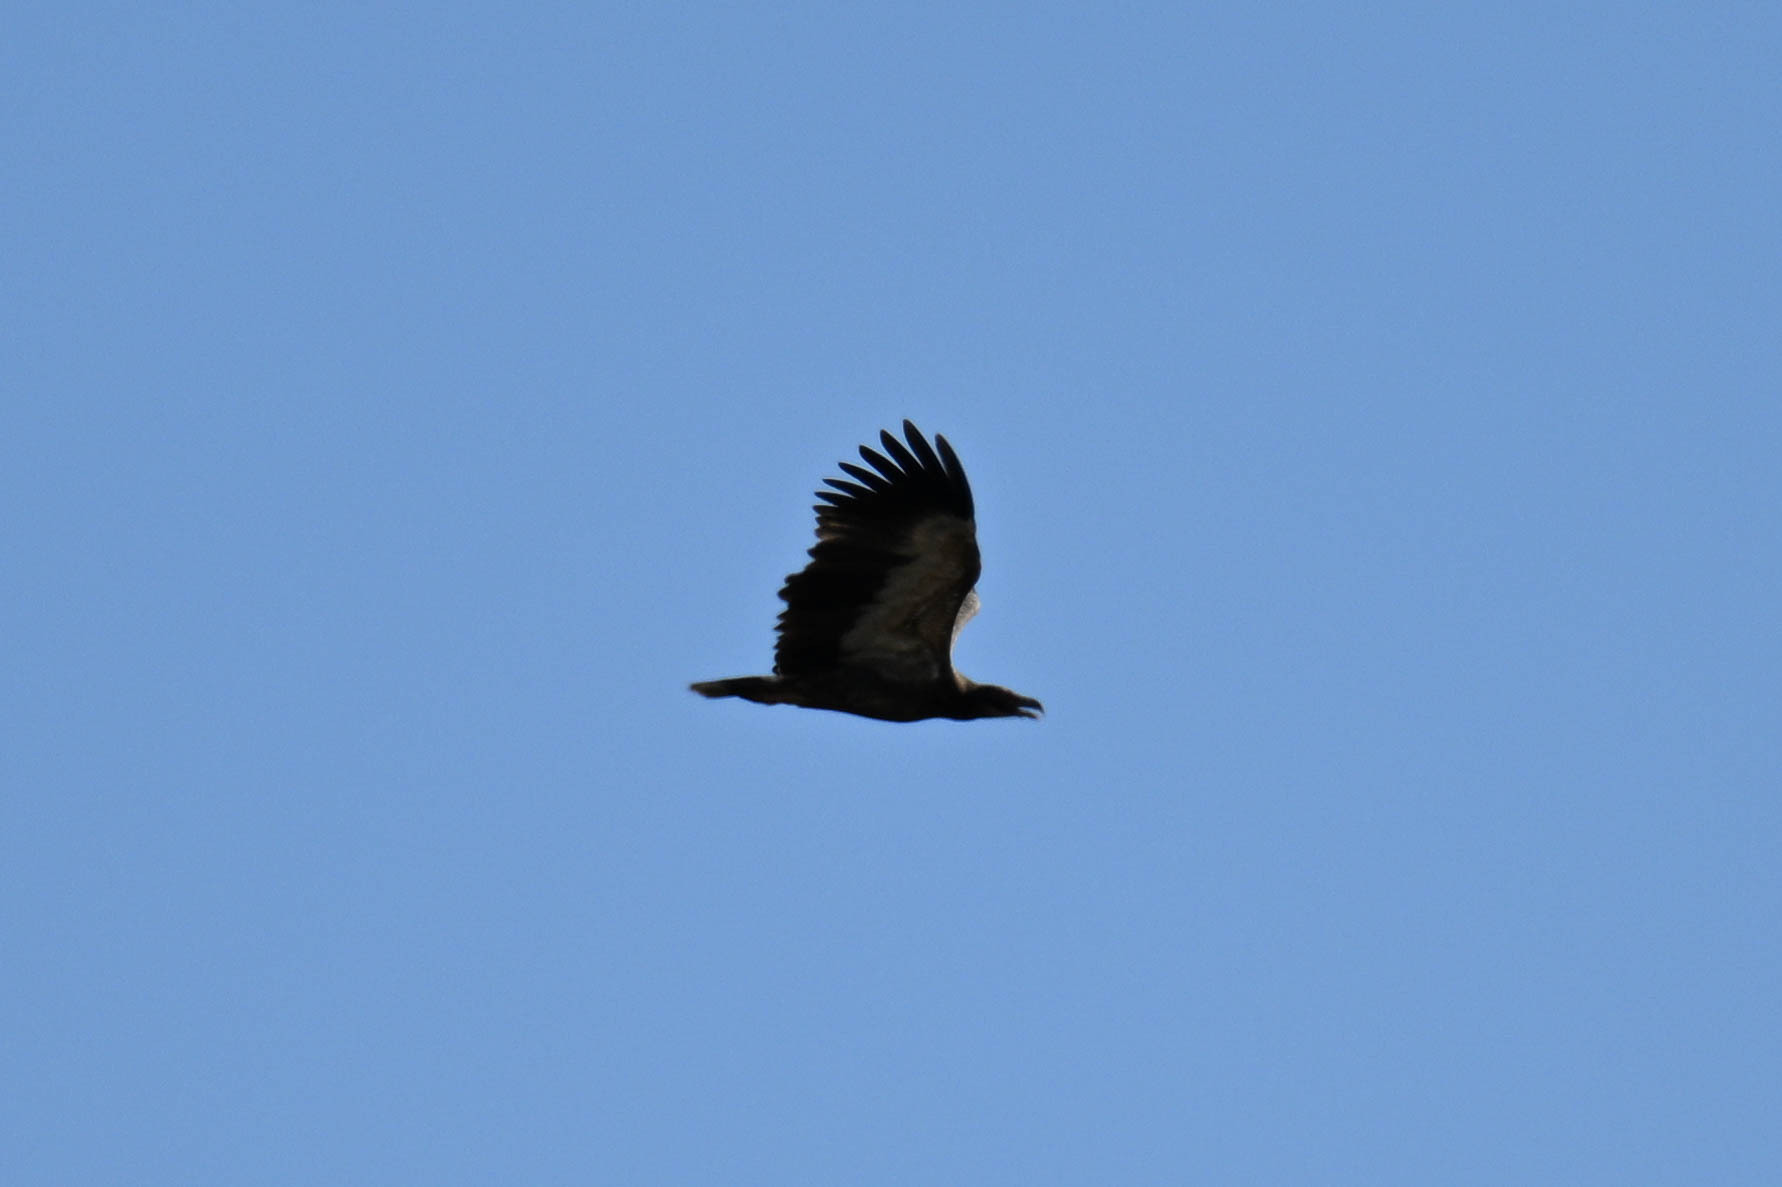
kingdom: Animalia
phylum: Chordata
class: Aves
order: Accipitriformes
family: Accipitridae
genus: Gypohierax
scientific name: Gypohierax angolensis
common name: Palm-nut vulture
